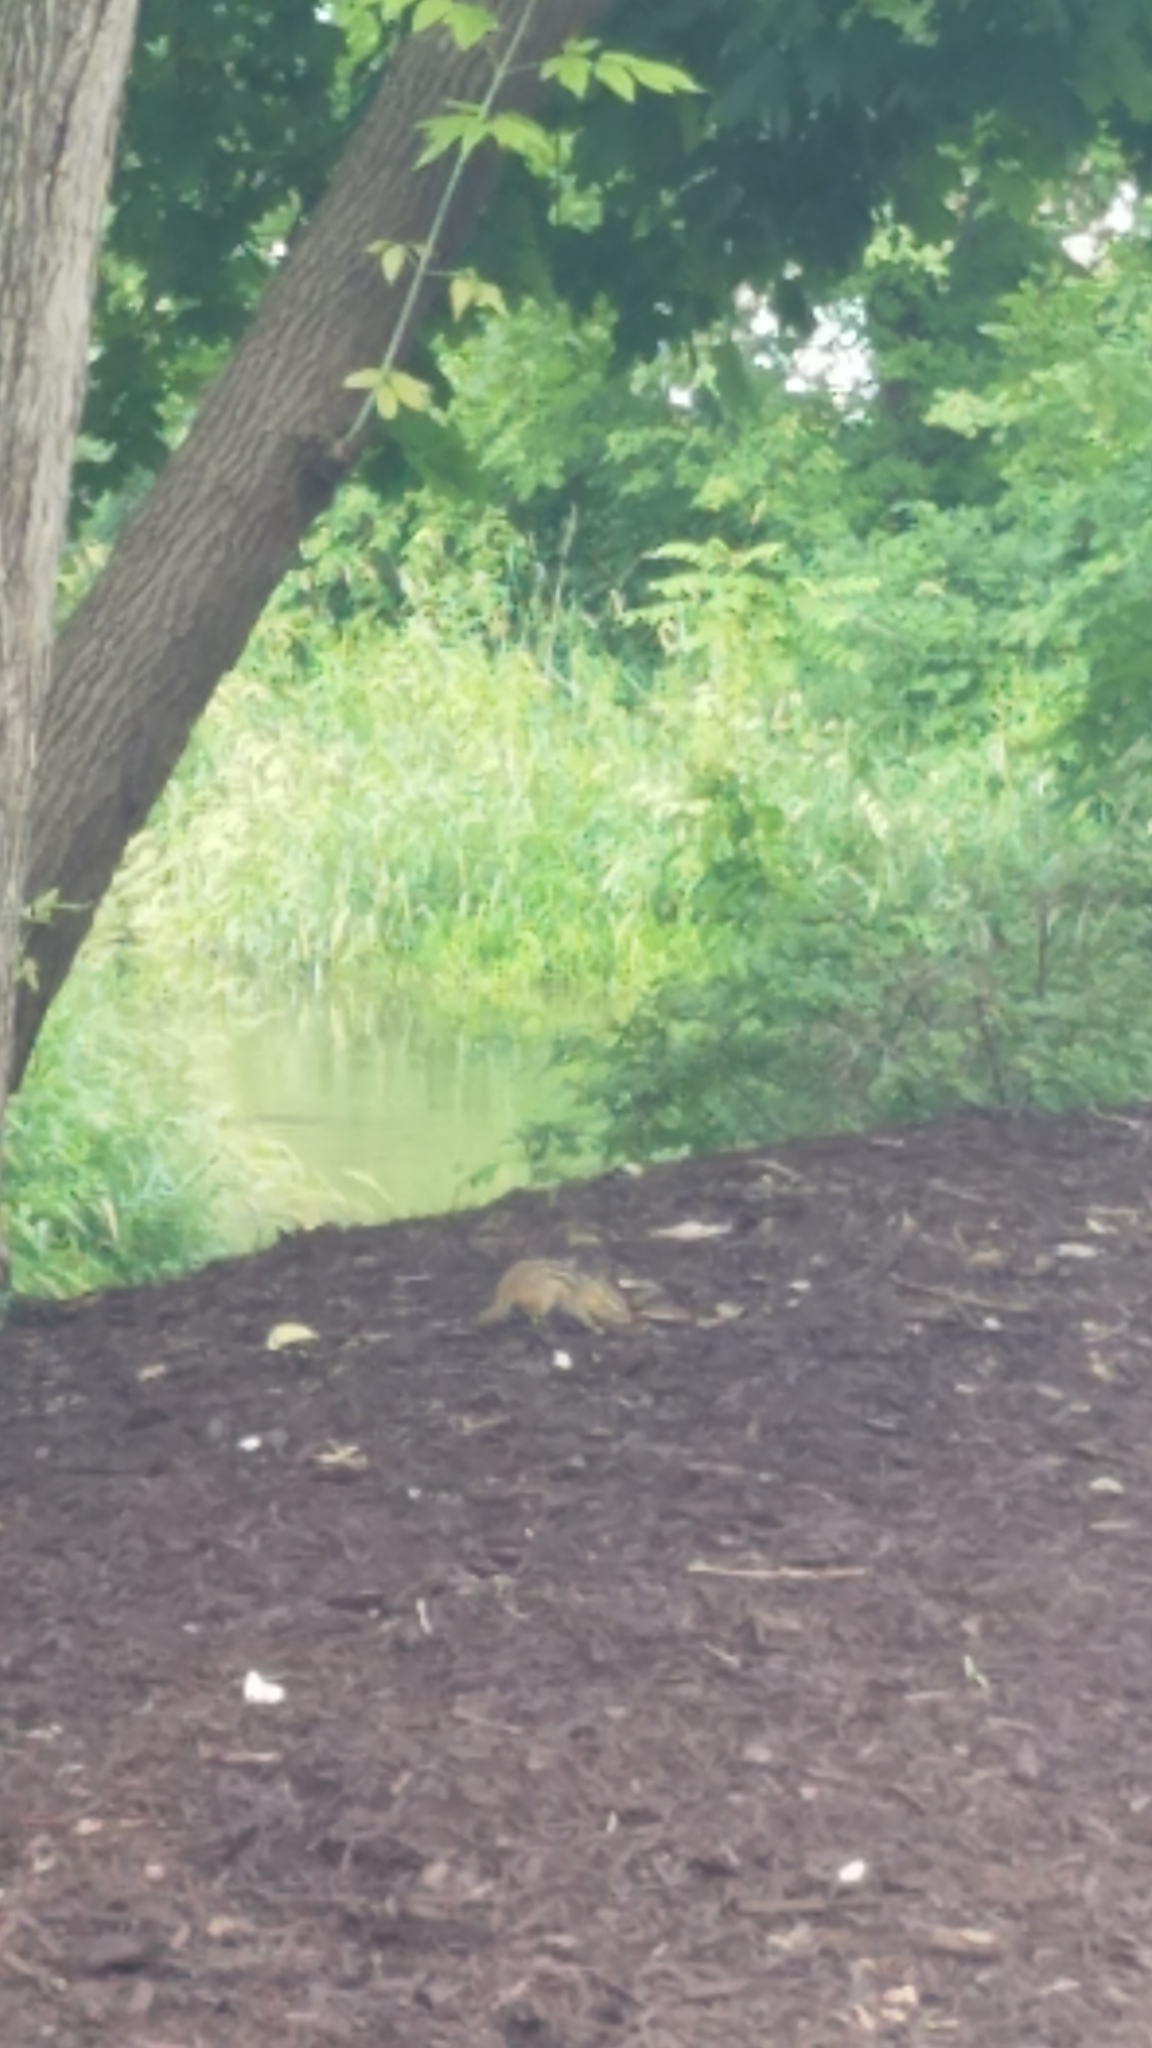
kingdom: Animalia
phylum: Chordata
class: Mammalia
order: Rodentia
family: Sciuridae
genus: Tamias
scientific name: Tamias striatus
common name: Eastern chipmunk
